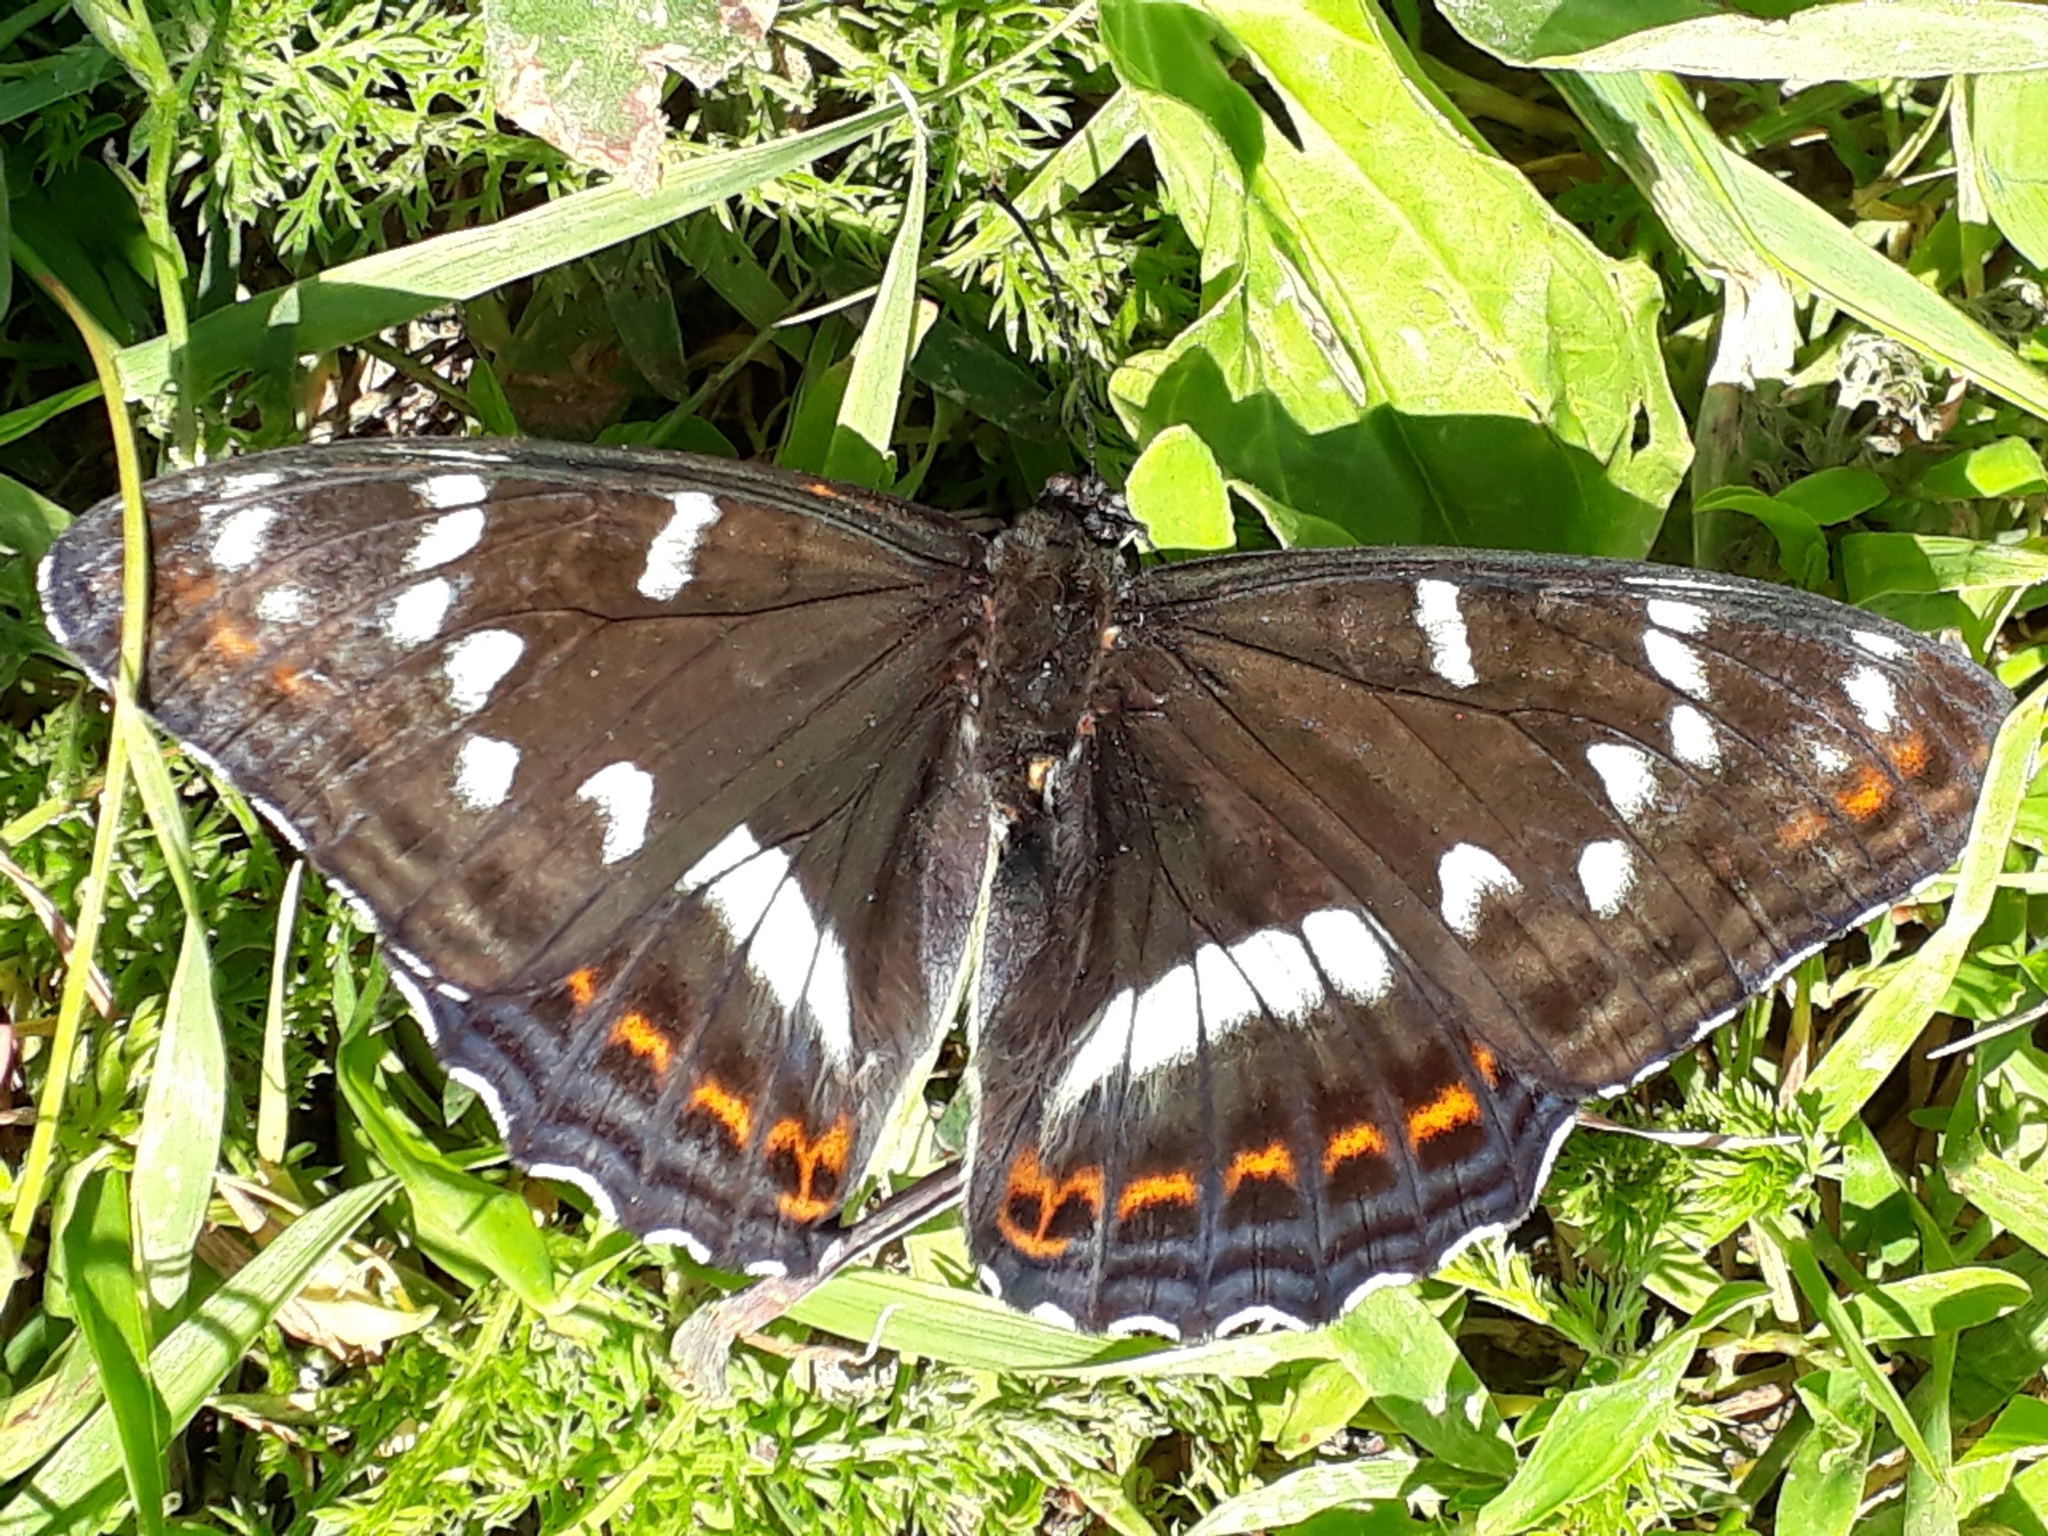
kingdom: Animalia
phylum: Arthropoda
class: Insecta
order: Lepidoptera
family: Nymphalidae
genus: Limenitis
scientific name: Limenitis populi
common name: Poplar admiral
